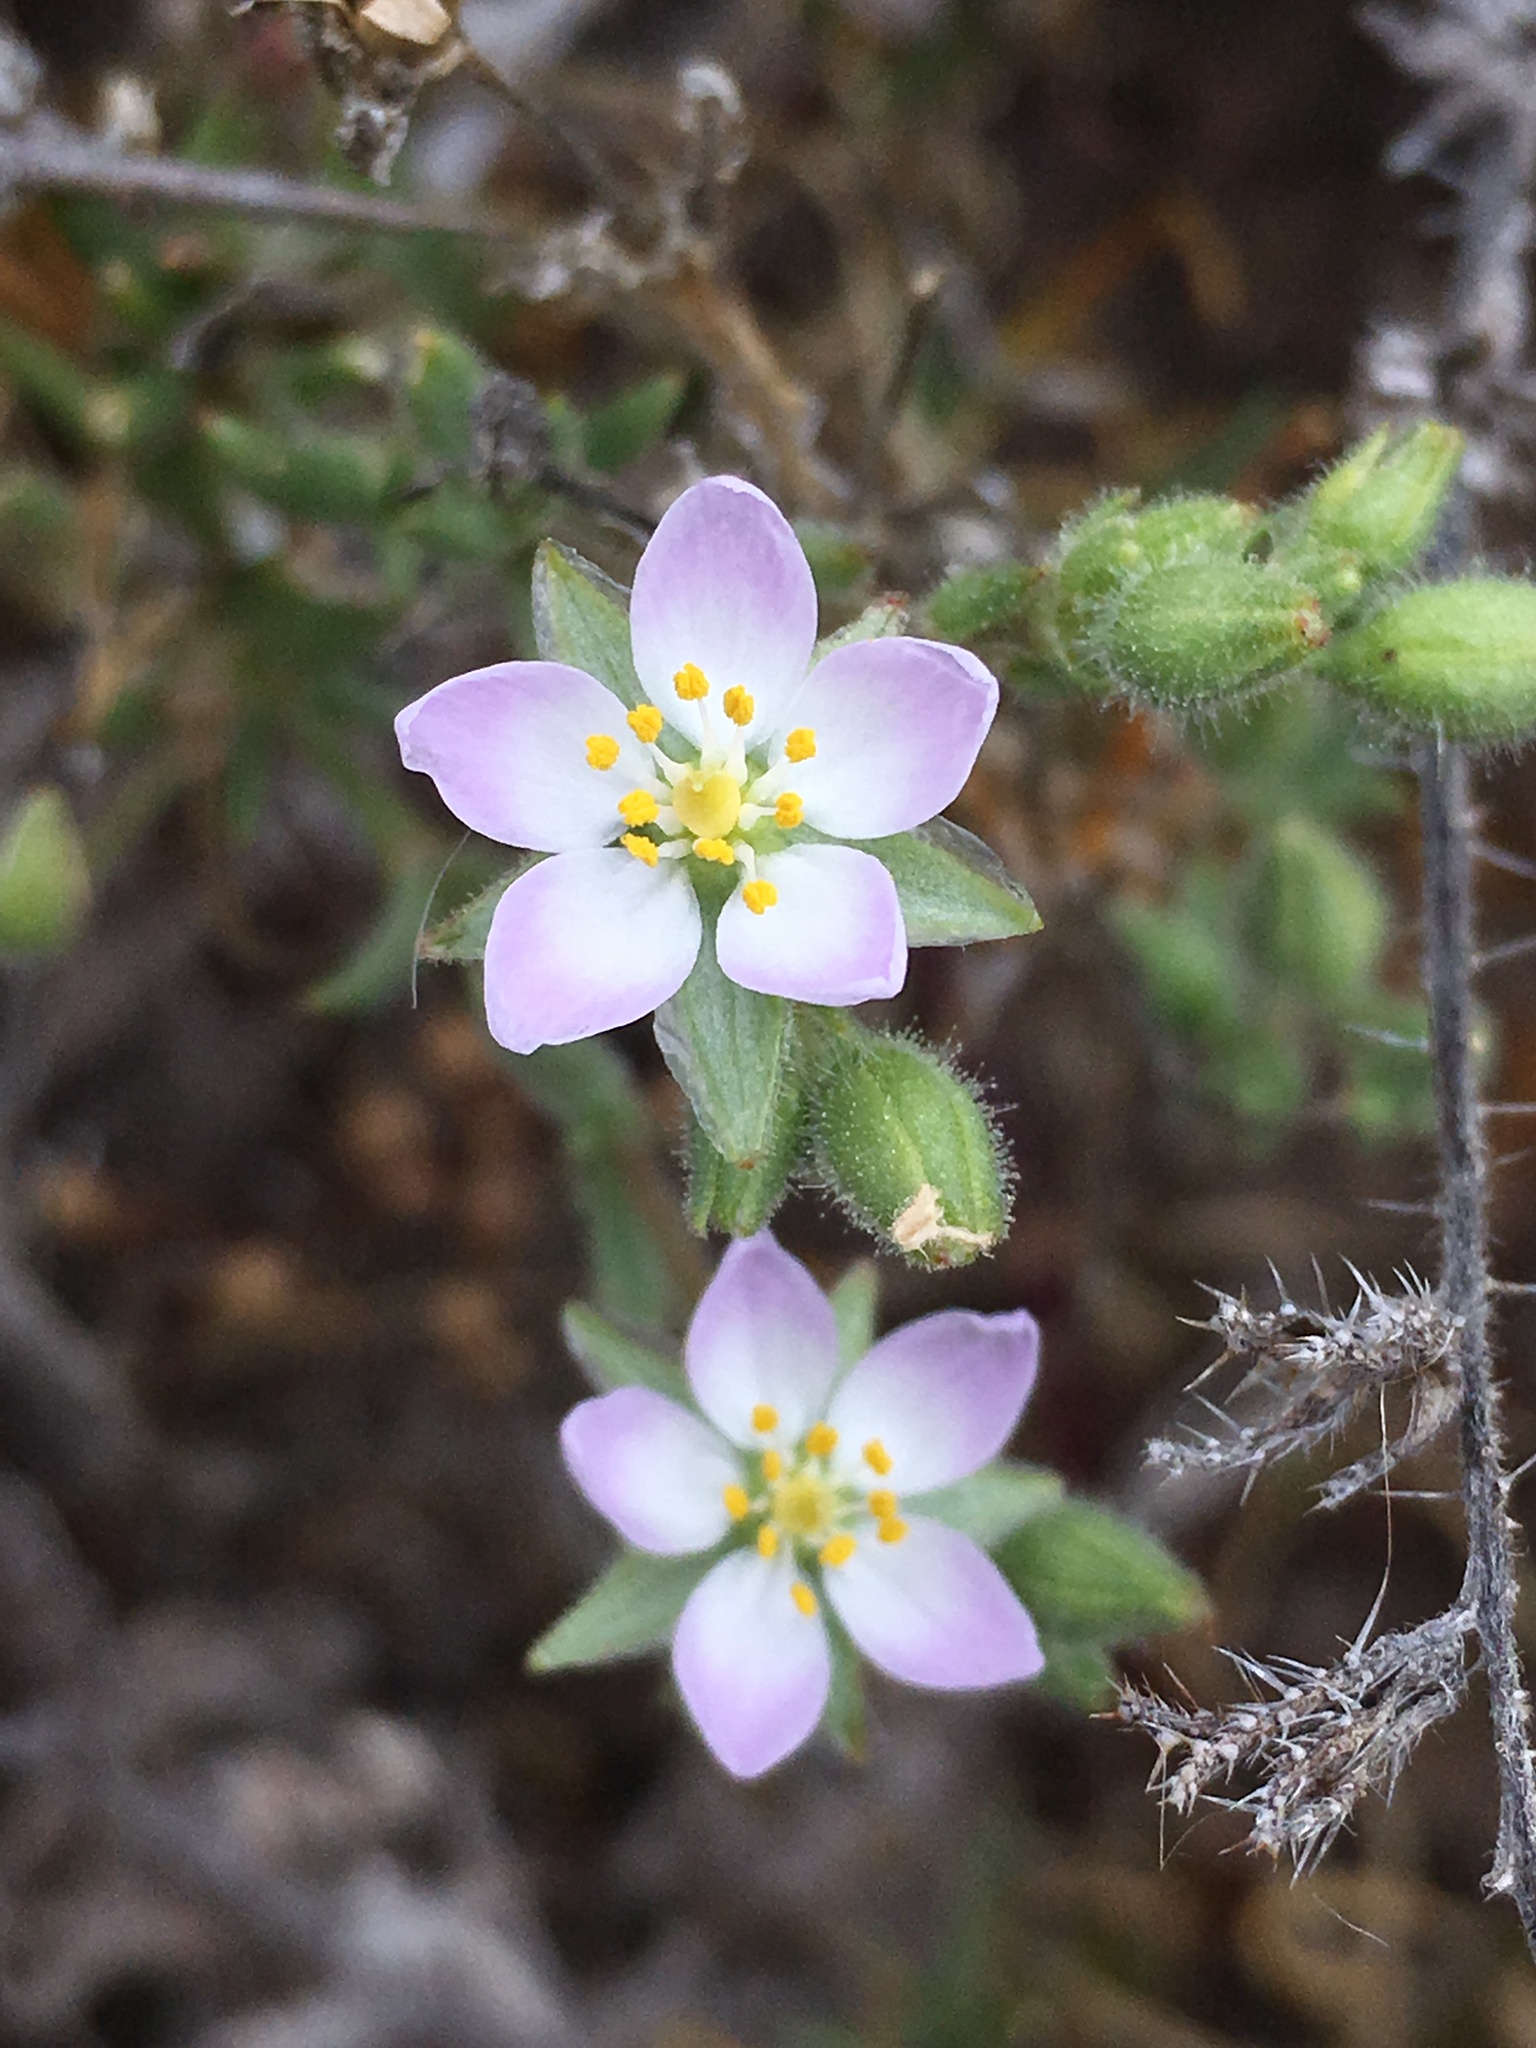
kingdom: Plantae
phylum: Tracheophyta
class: Magnoliopsida
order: Caryophyllales
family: Caryophyllaceae
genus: Spergularia
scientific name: Spergularia macrotheca
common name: Beach sand-spurrey
